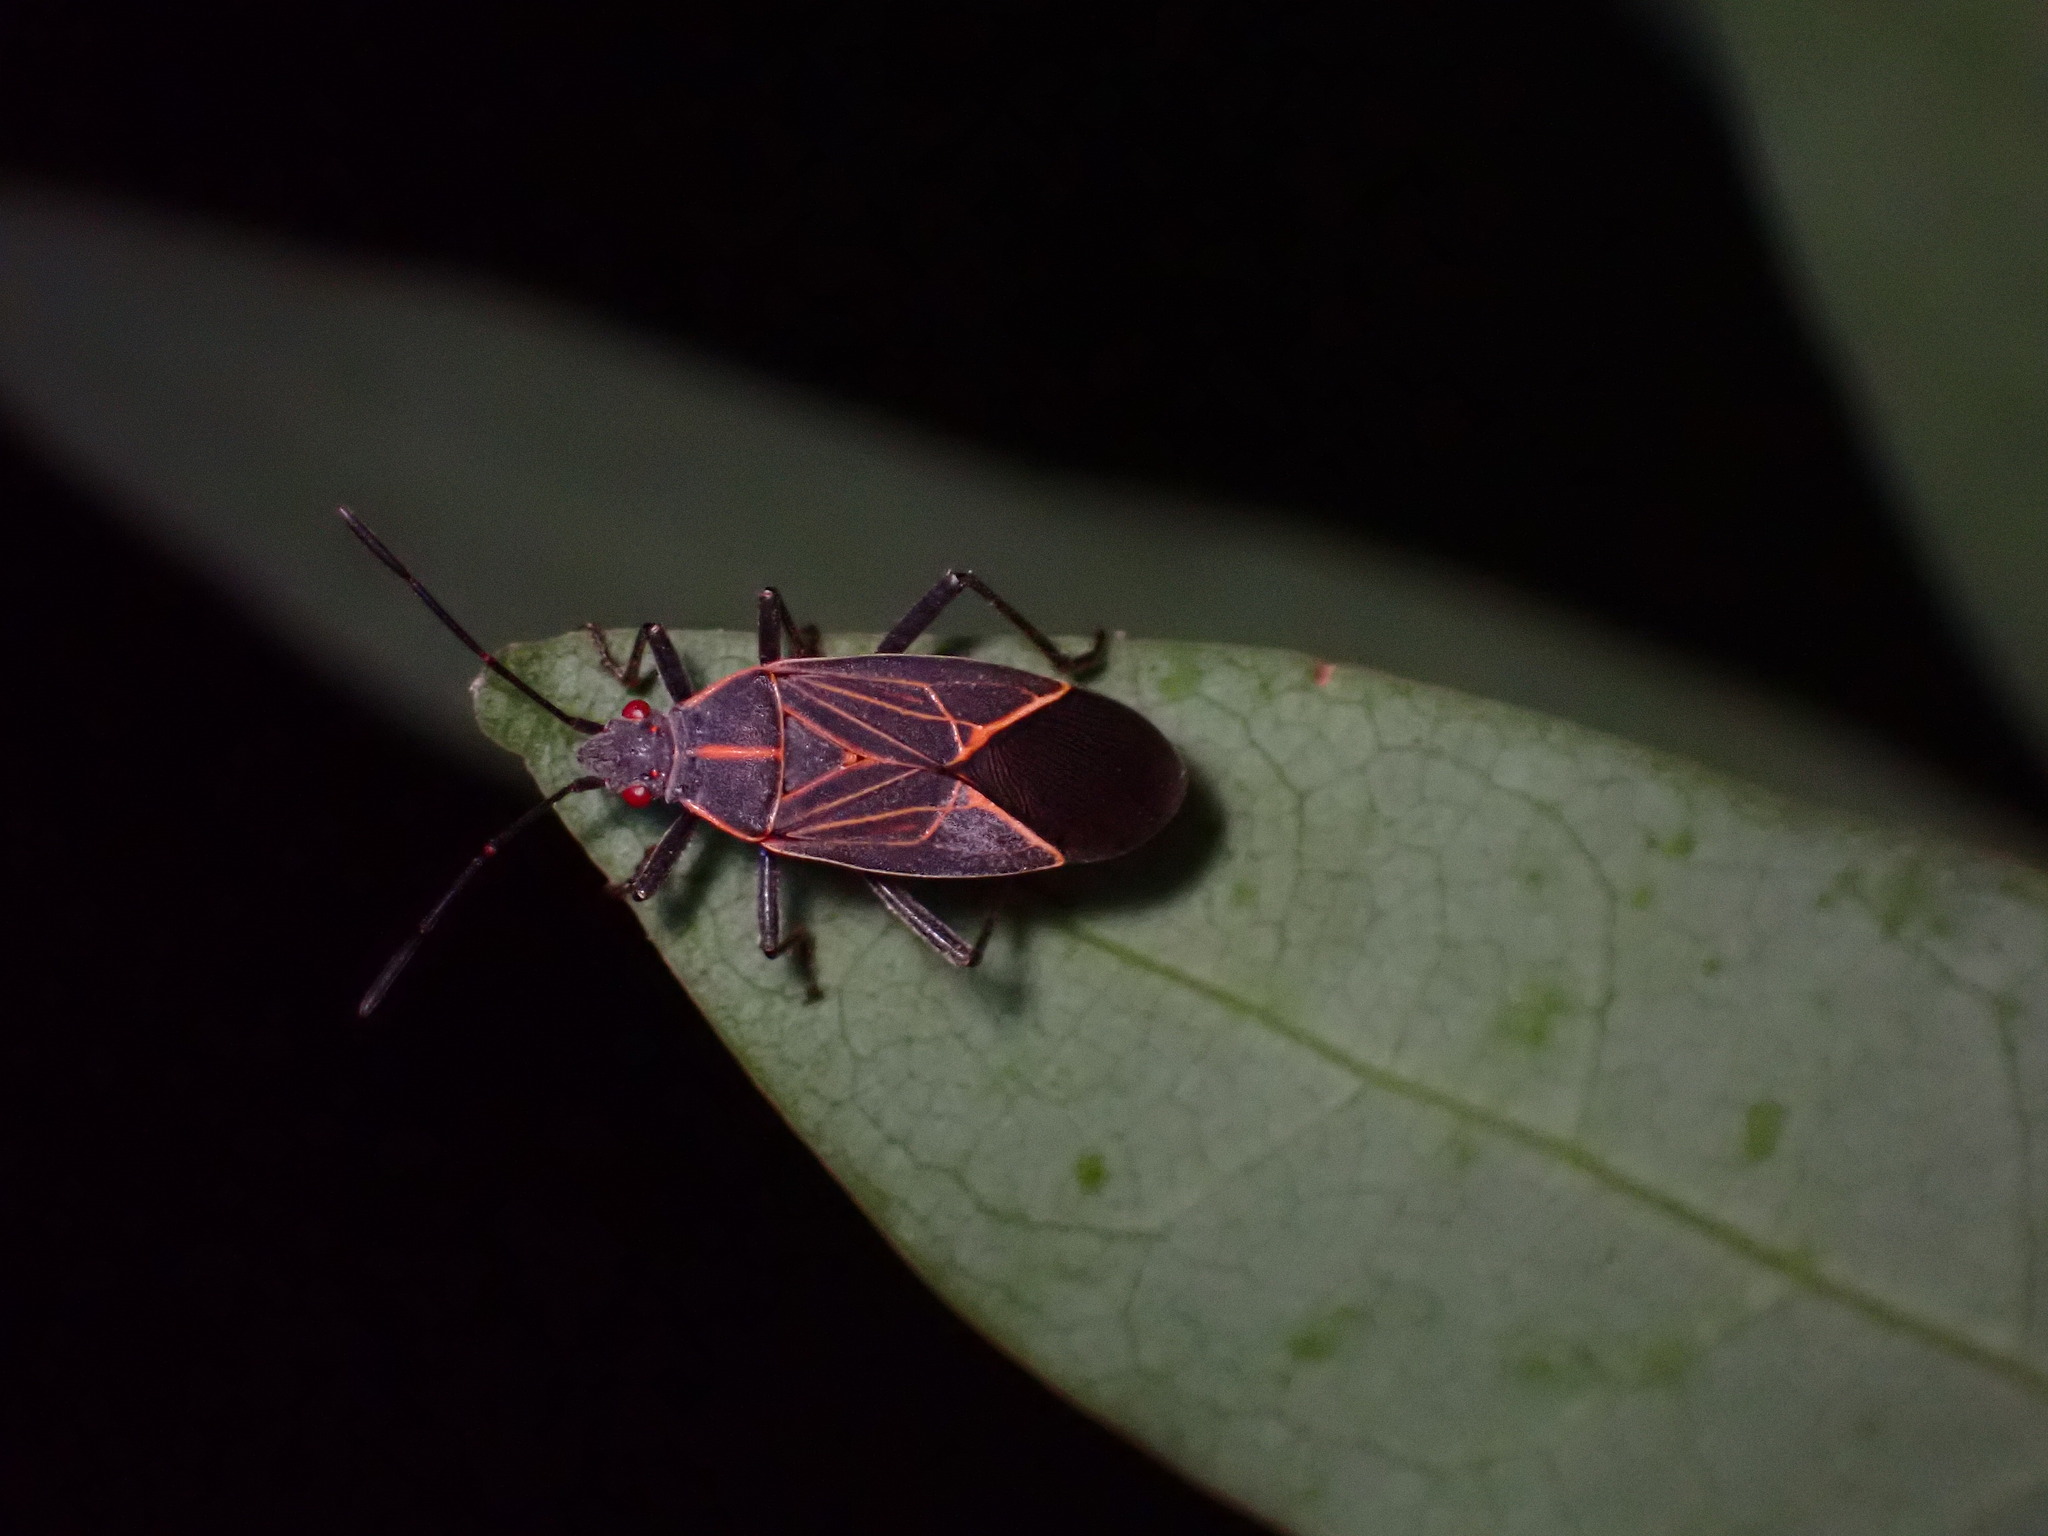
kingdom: Animalia
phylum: Arthropoda
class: Insecta
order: Hemiptera
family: Rhopalidae
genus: Boisea
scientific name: Boisea rubrolineata
